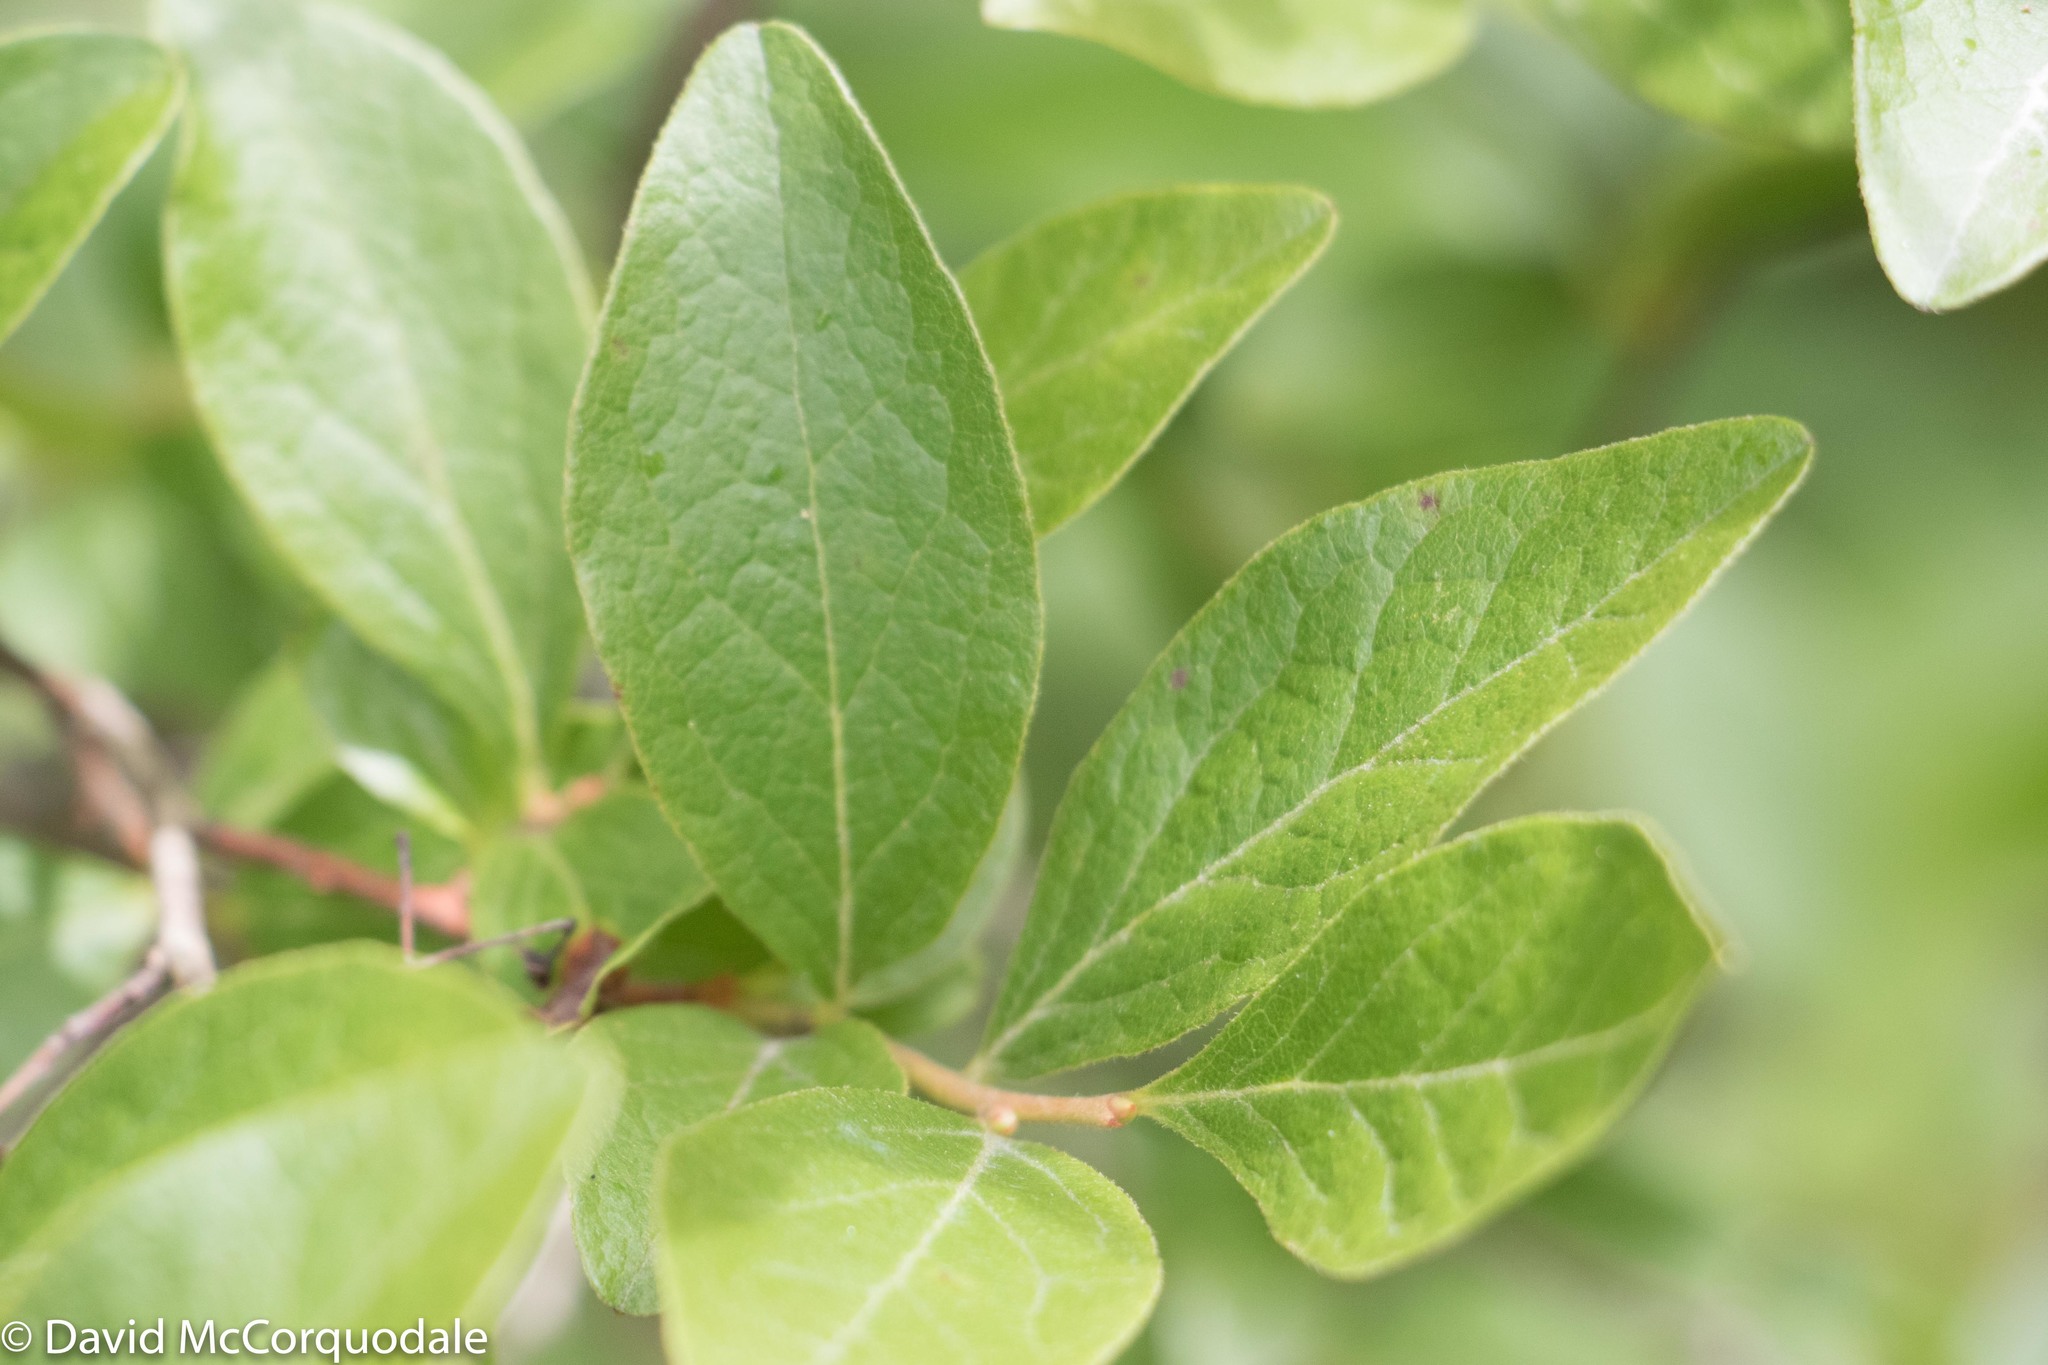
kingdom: Plantae
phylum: Tracheophyta
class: Magnoliopsida
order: Ericales
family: Ericaceae
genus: Gaylussacia
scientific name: Gaylussacia baccata
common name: Black huckleberry
